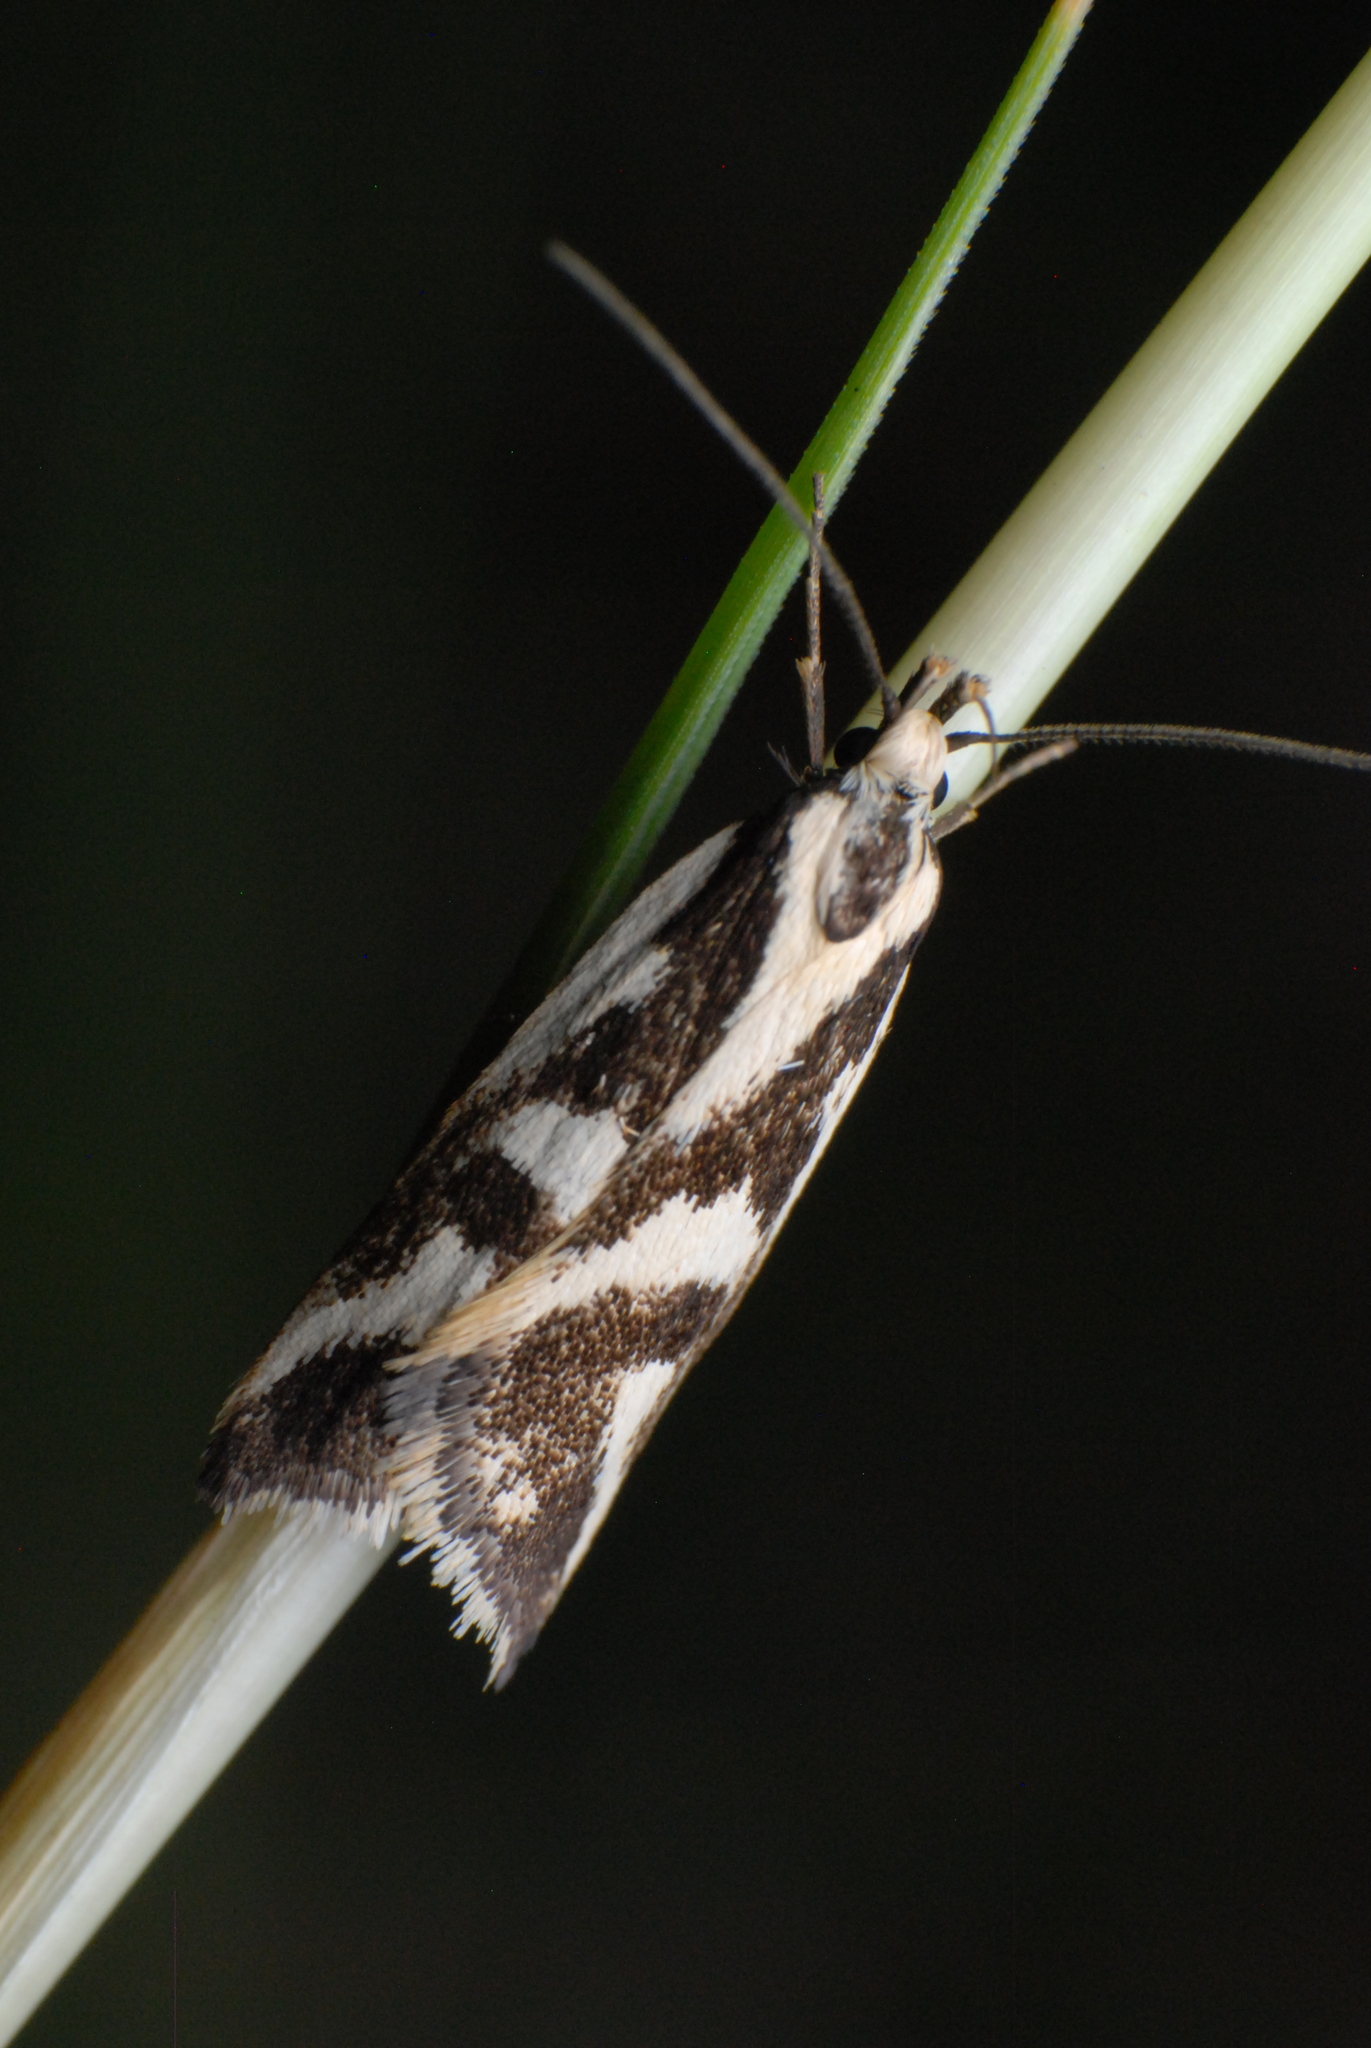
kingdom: Animalia
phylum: Arthropoda
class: Insecta
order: Lepidoptera
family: Oecophoridae
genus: Epithymema
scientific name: Epithymema incomposita
